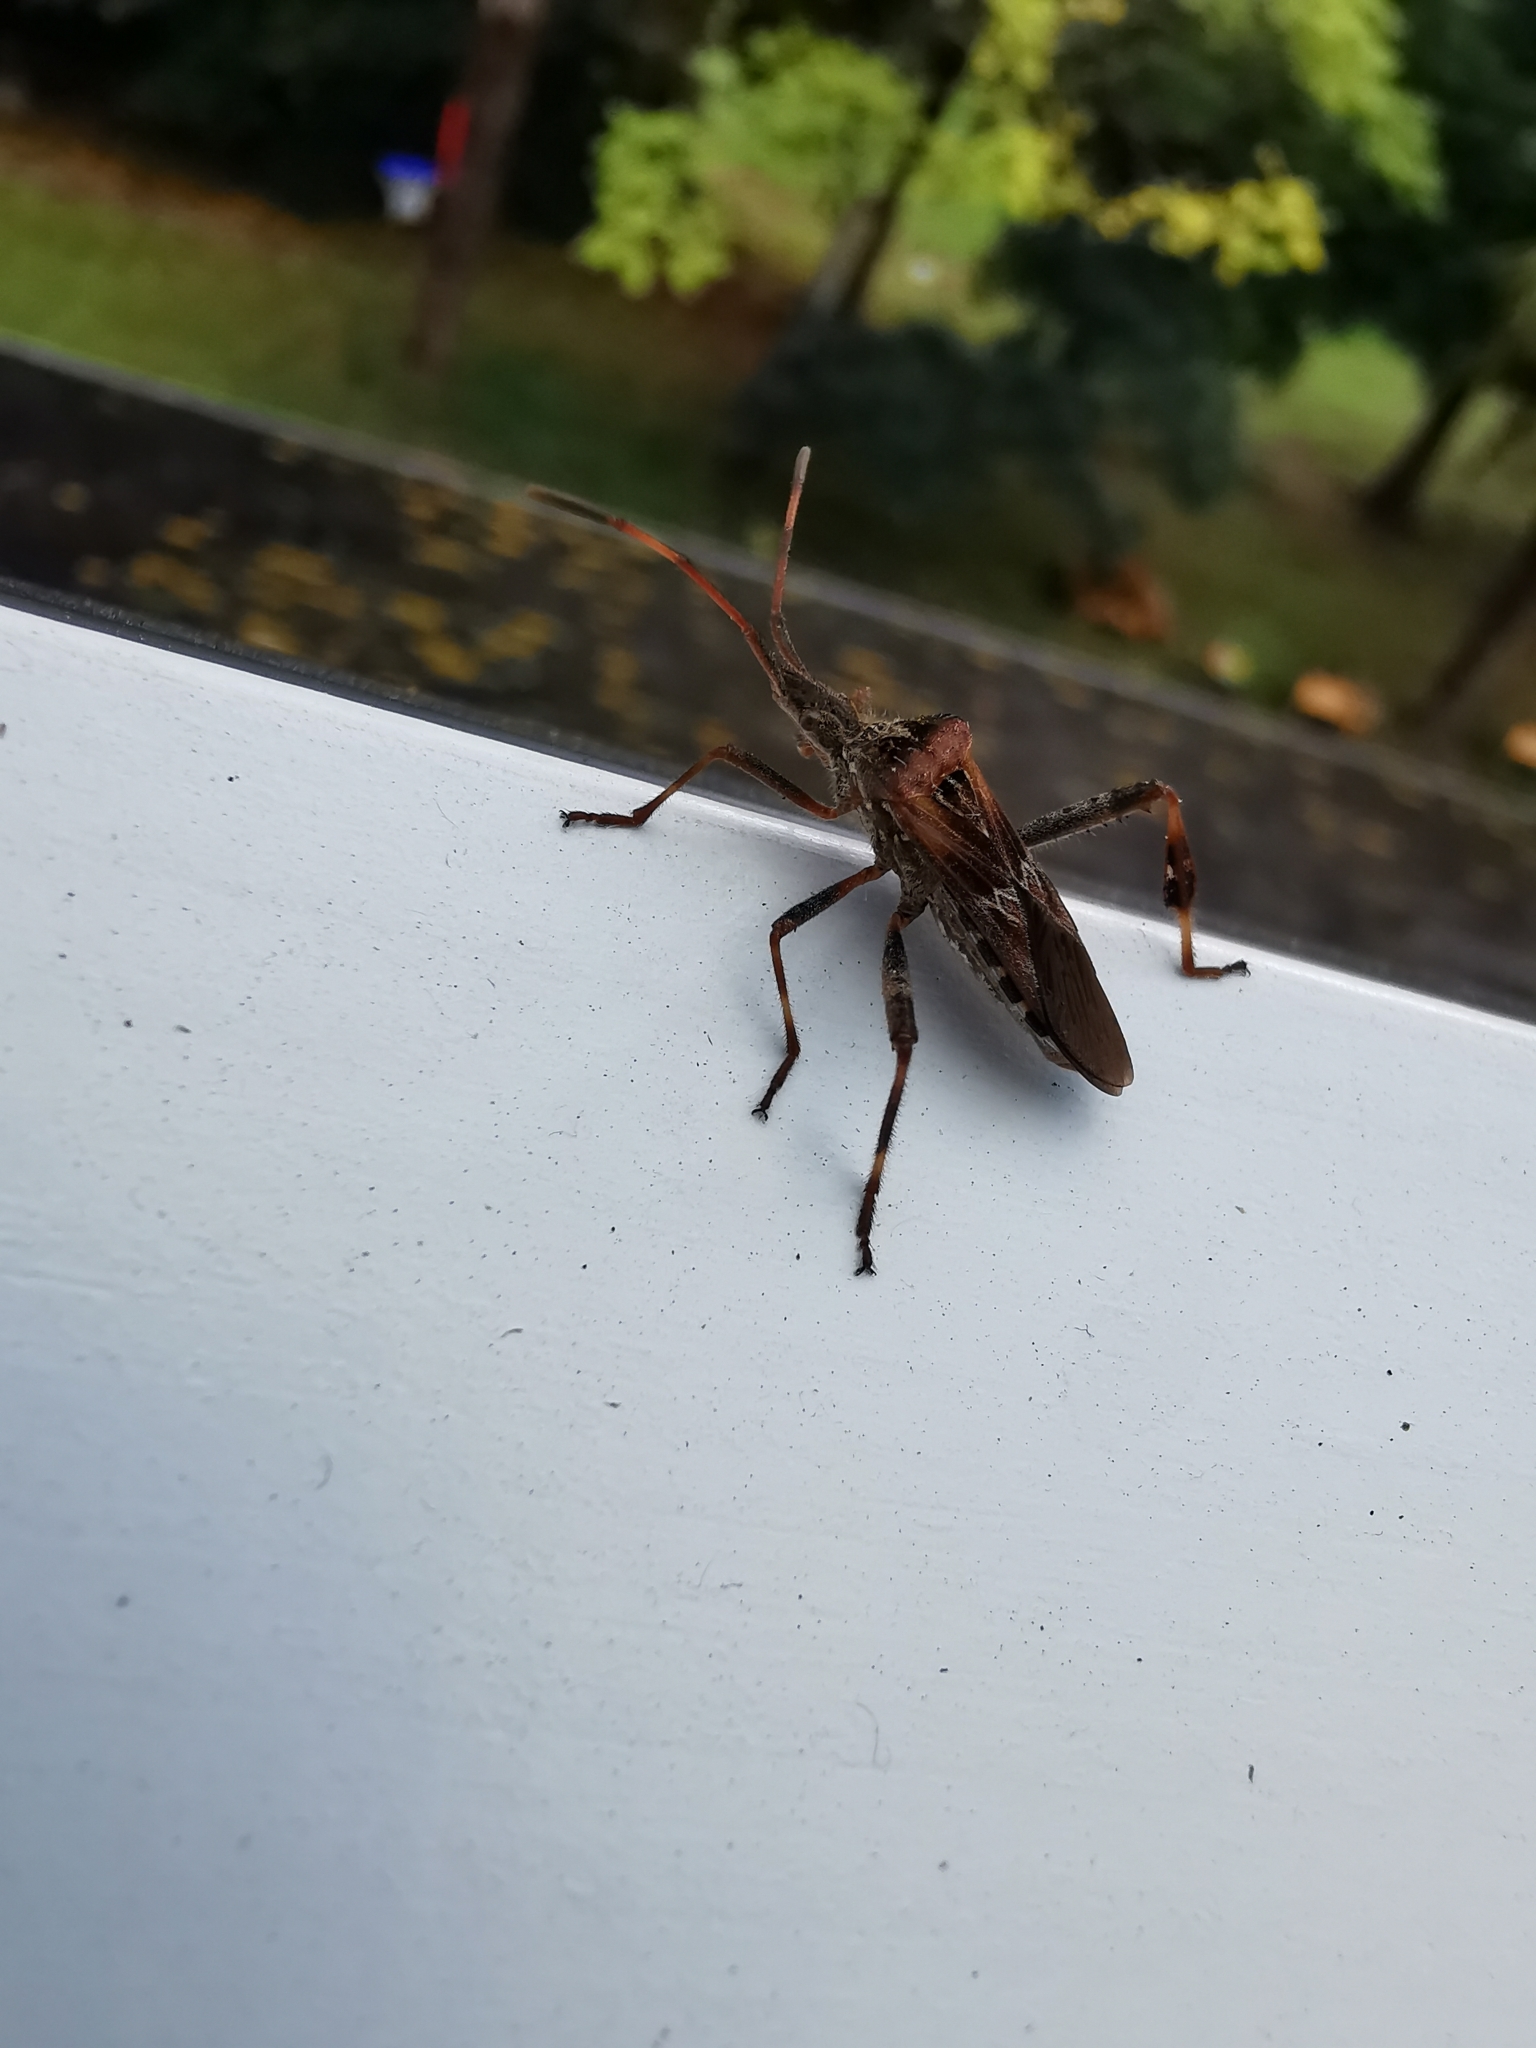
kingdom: Animalia
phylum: Arthropoda
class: Insecta
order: Hemiptera
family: Coreidae
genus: Leptoglossus
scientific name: Leptoglossus occidentalis
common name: Western conifer-seed bug
